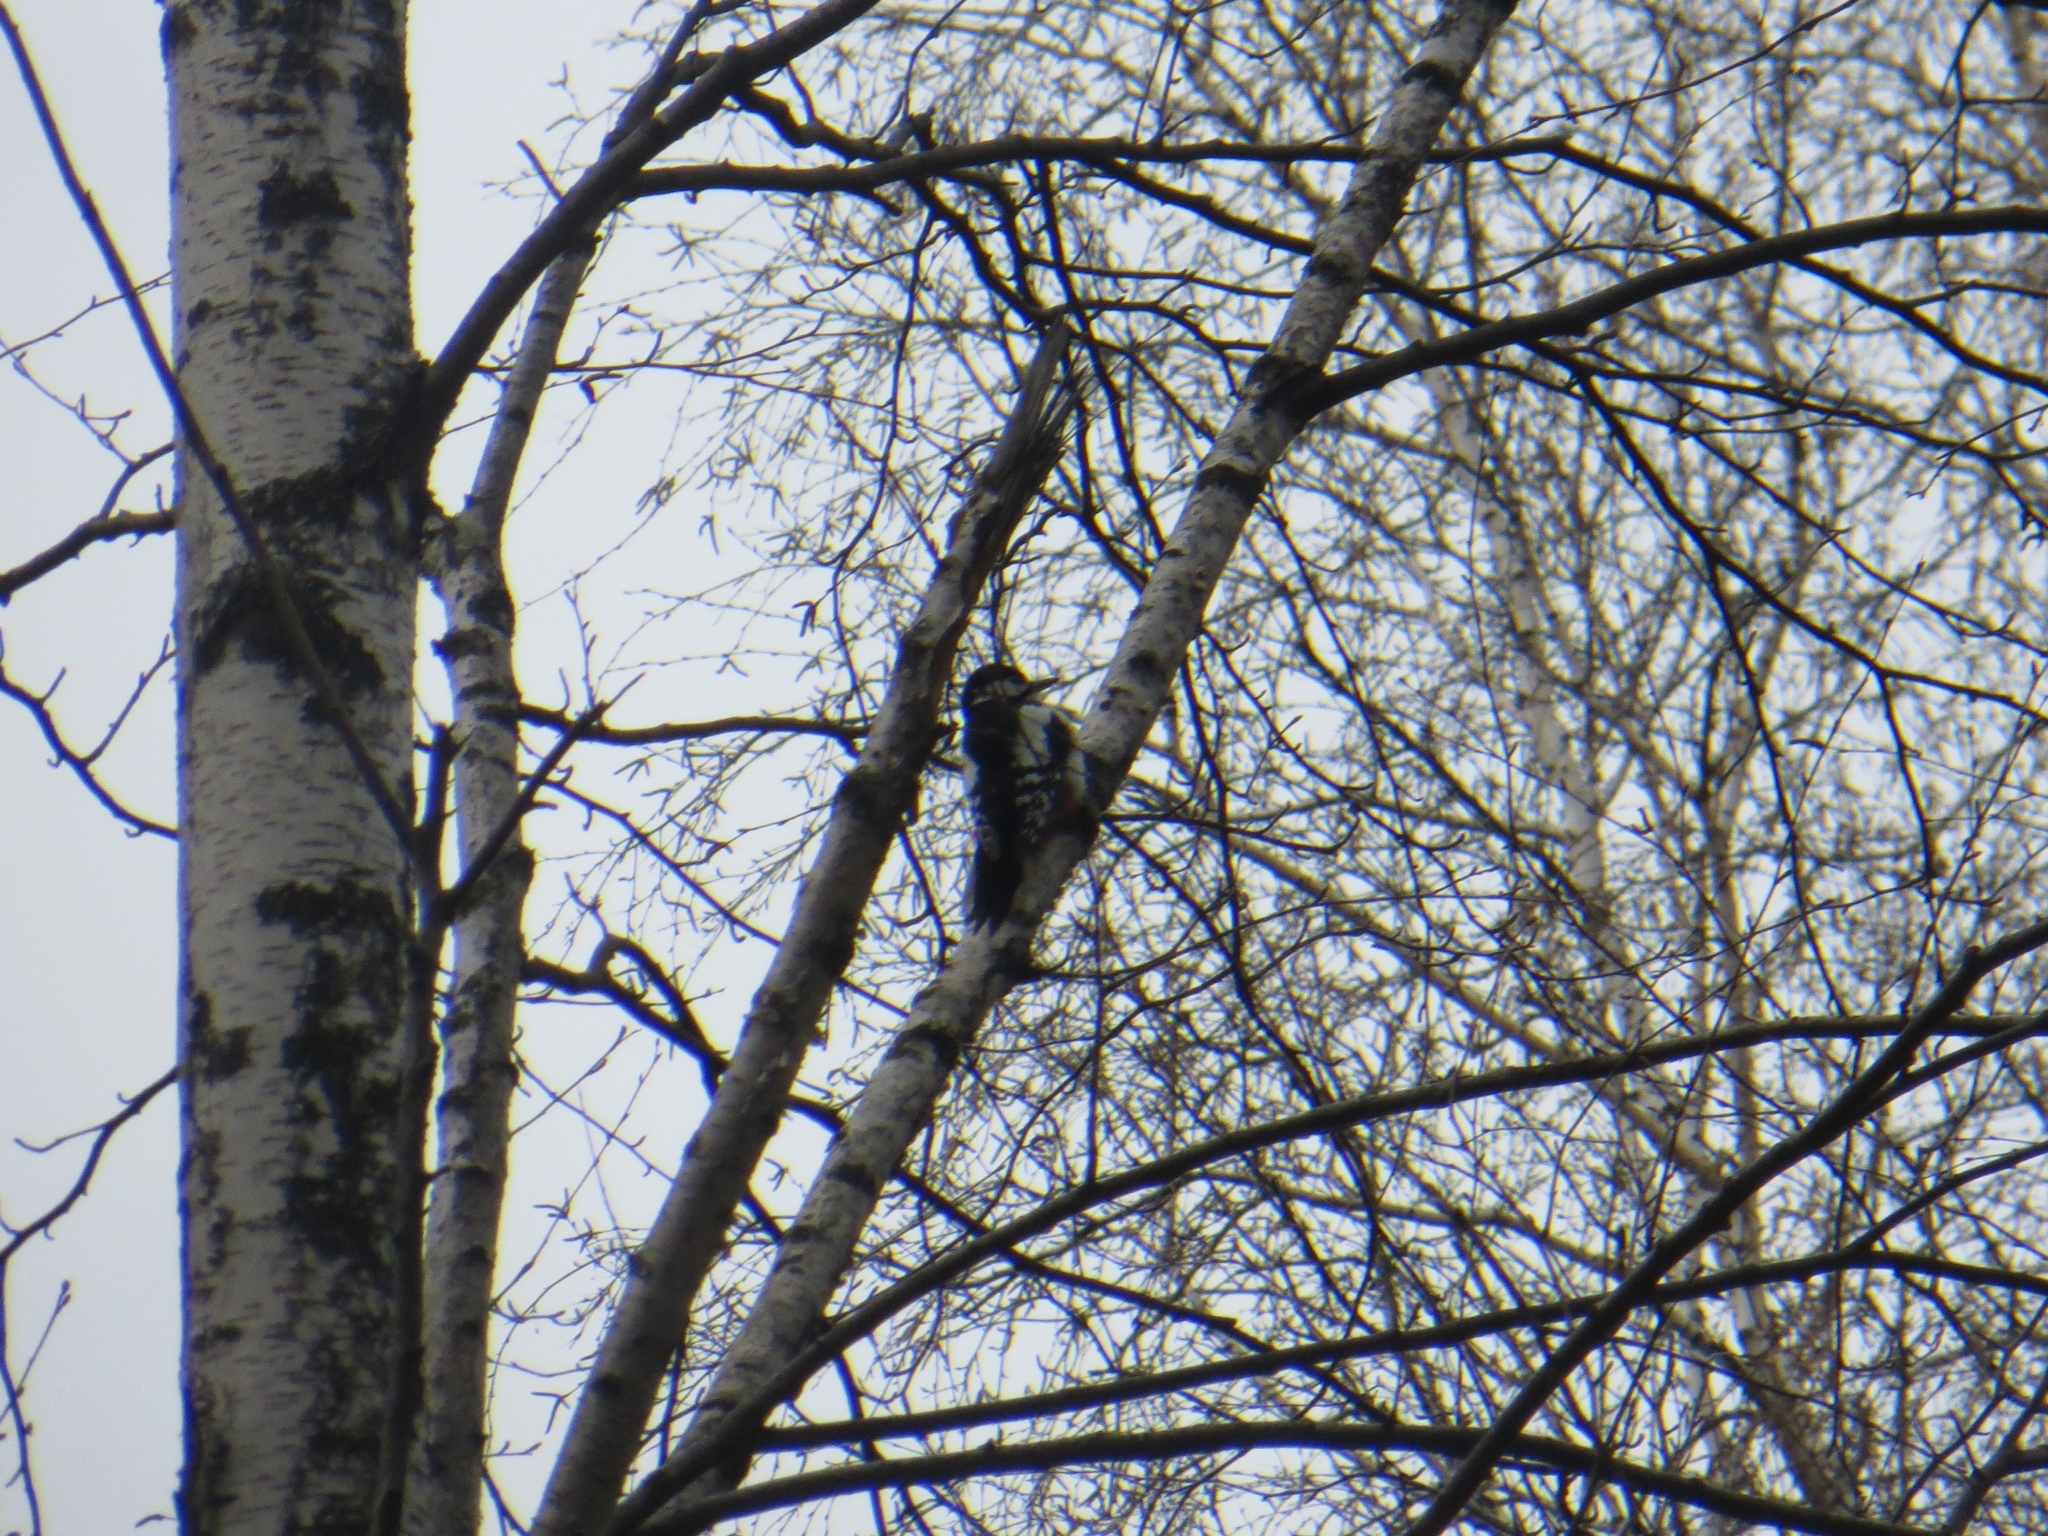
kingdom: Animalia
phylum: Chordata
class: Aves
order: Piciformes
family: Picidae
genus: Dendrocopos
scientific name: Dendrocopos major
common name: Great spotted woodpecker
